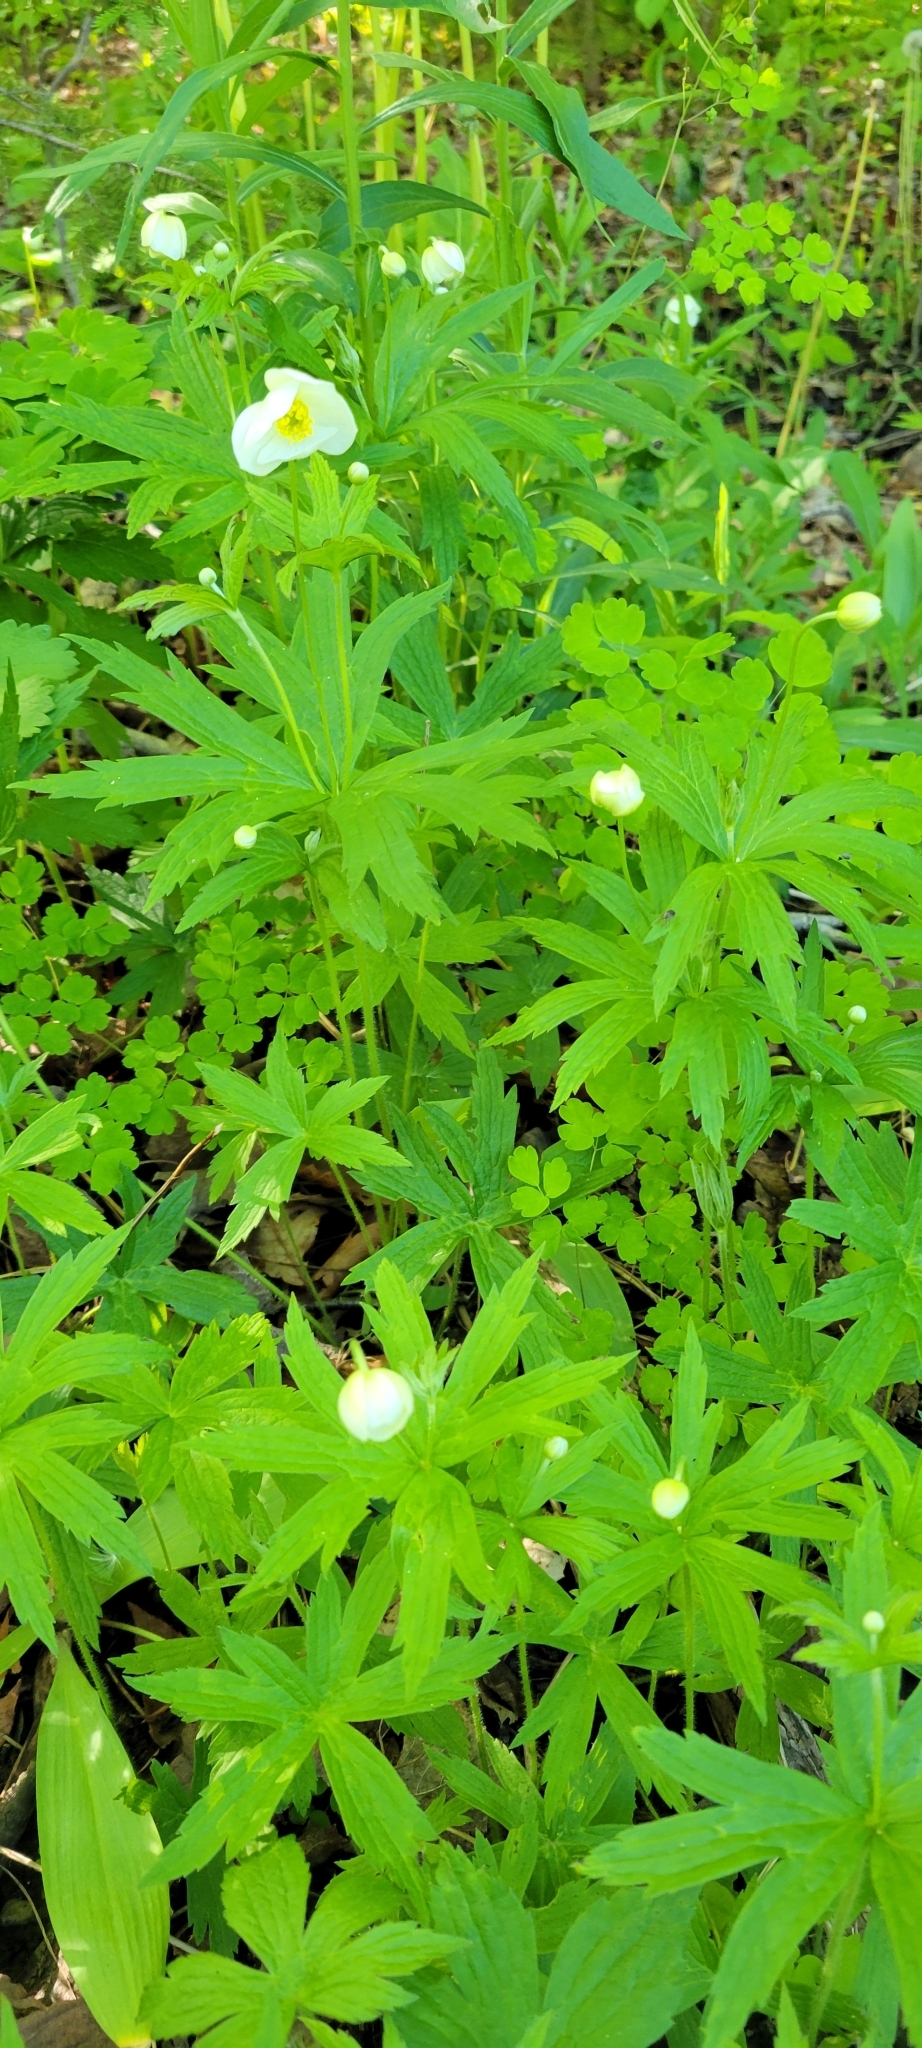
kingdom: Plantae
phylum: Tracheophyta
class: Magnoliopsida
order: Ranunculales
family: Ranunculaceae
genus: Anemonastrum
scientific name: Anemonastrum canadense
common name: Canada anemone
